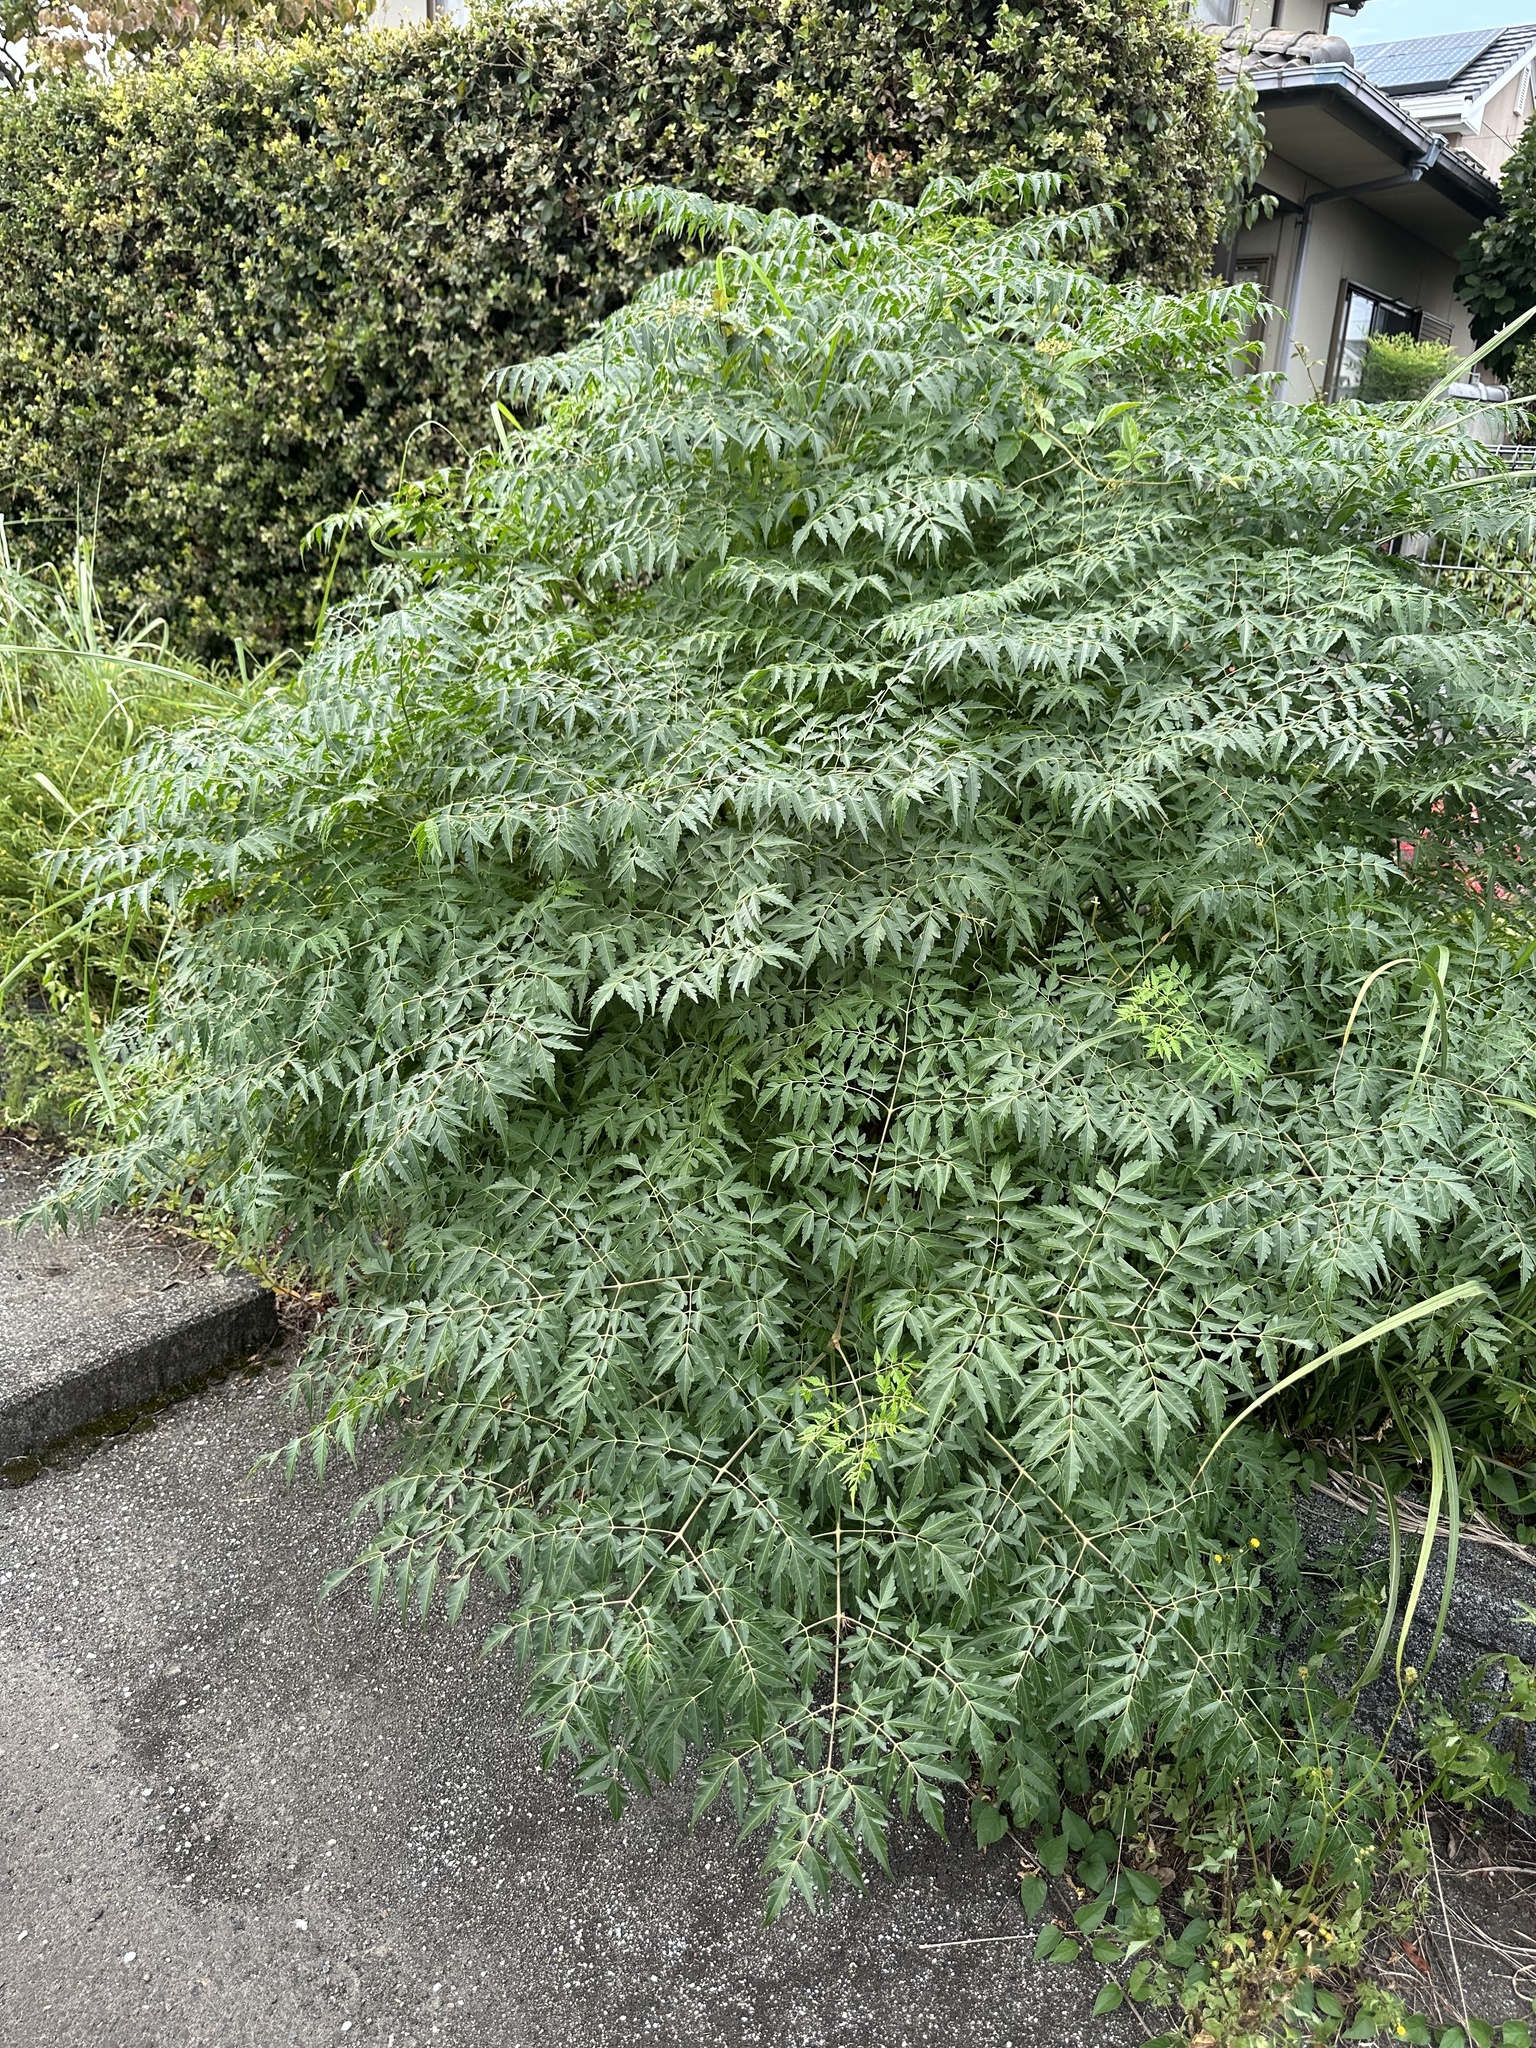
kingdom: Plantae
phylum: Tracheophyta
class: Magnoliopsida
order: Sapindales
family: Meliaceae
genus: Melia
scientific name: Melia azedarach
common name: Chinaberrytree
